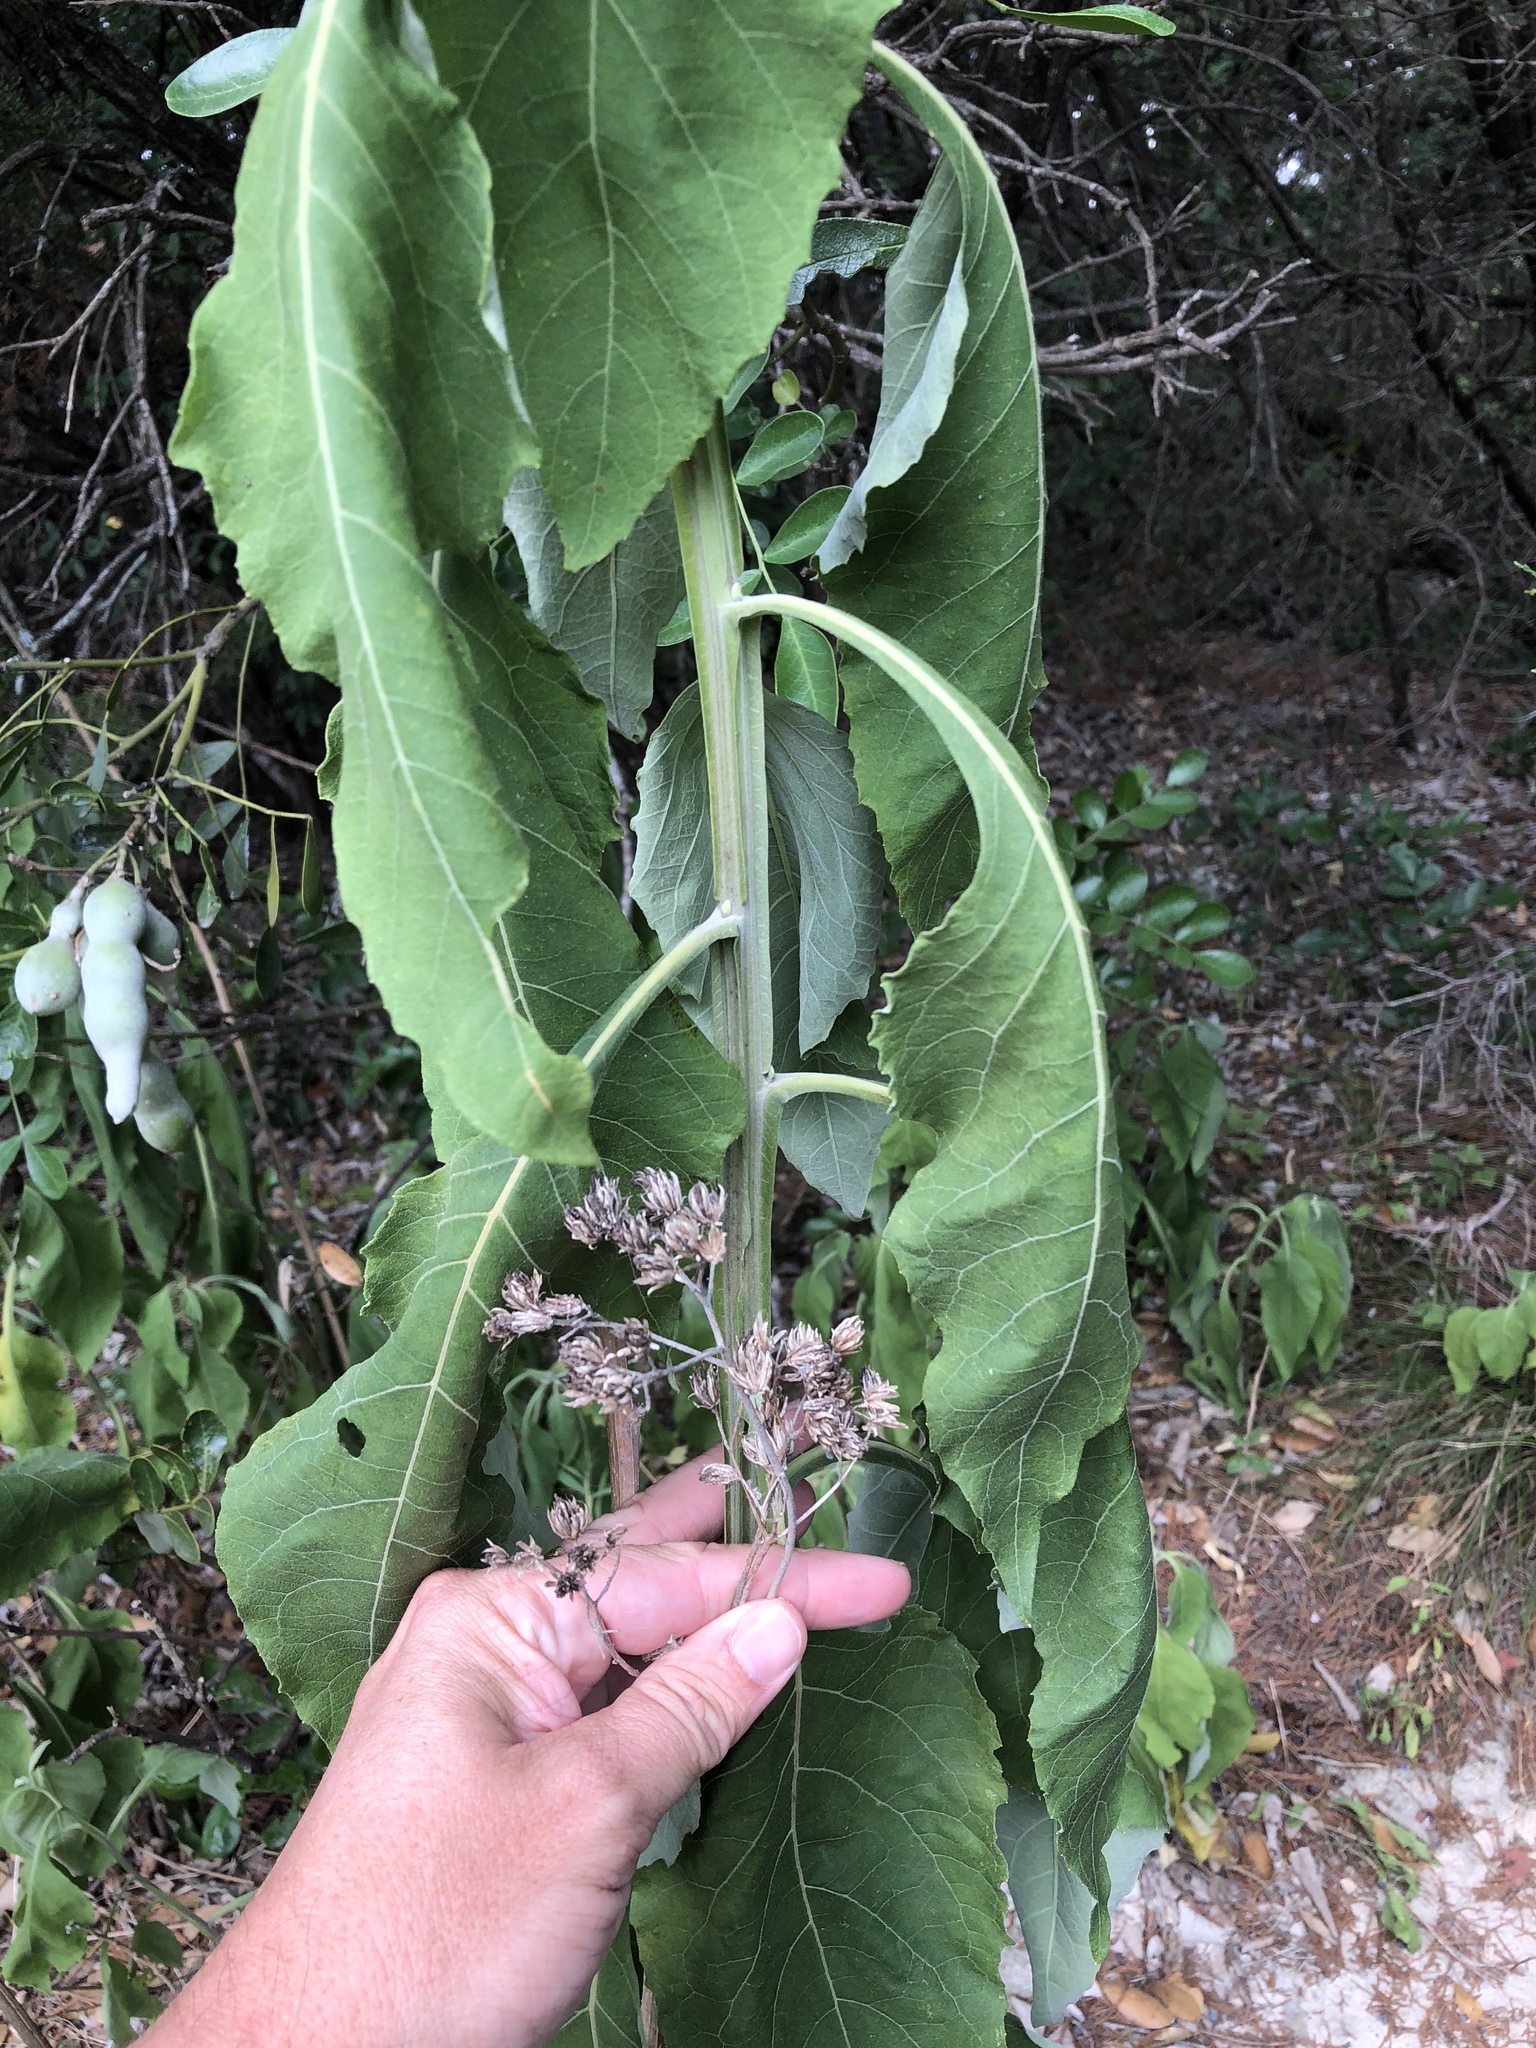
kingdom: Plantae
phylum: Tracheophyta
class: Magnoliopsida
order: Asterales
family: Asteraceae
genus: Verbesina
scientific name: Verbesina virginica
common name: Frostweed
